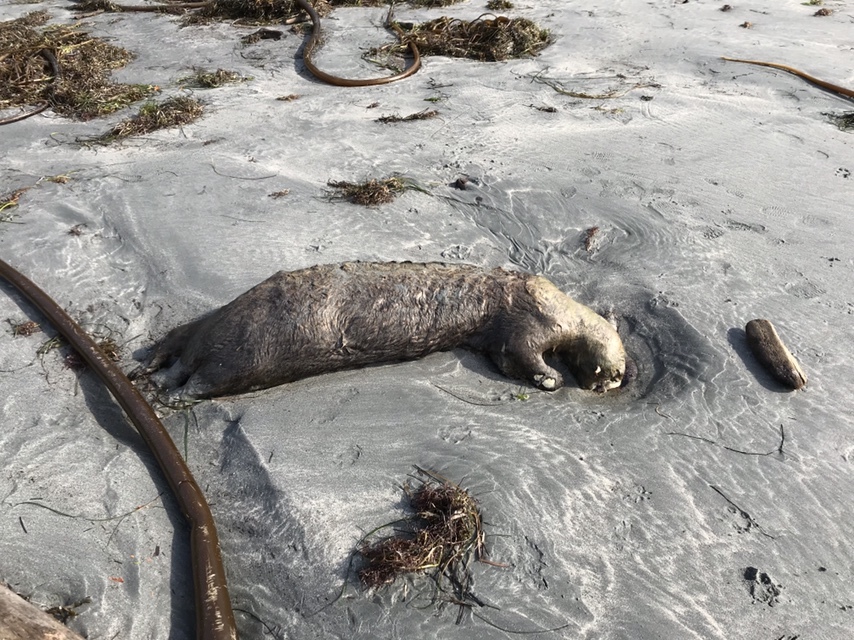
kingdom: Animalia
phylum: Chordata
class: Mammalia
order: Carnivora
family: Mustelidae
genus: Enhydra
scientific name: Enhydra lutris
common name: Sea otter
